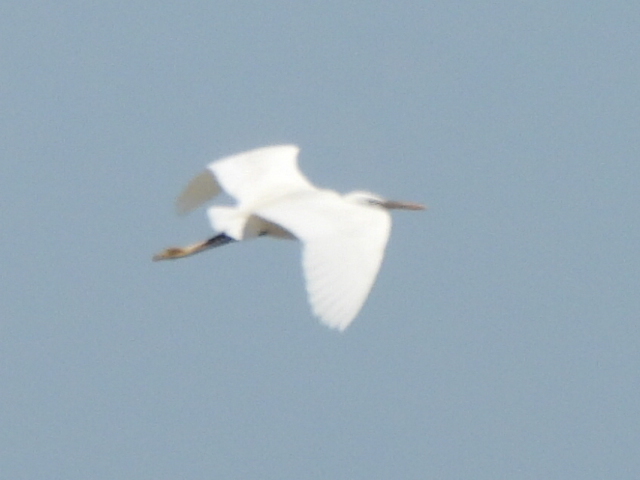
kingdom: Animalia
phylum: Chordata
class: Aves
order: Pelecaniformes
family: Ardeidae
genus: Egretta
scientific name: Egretta gularis
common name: Western reef-heron
